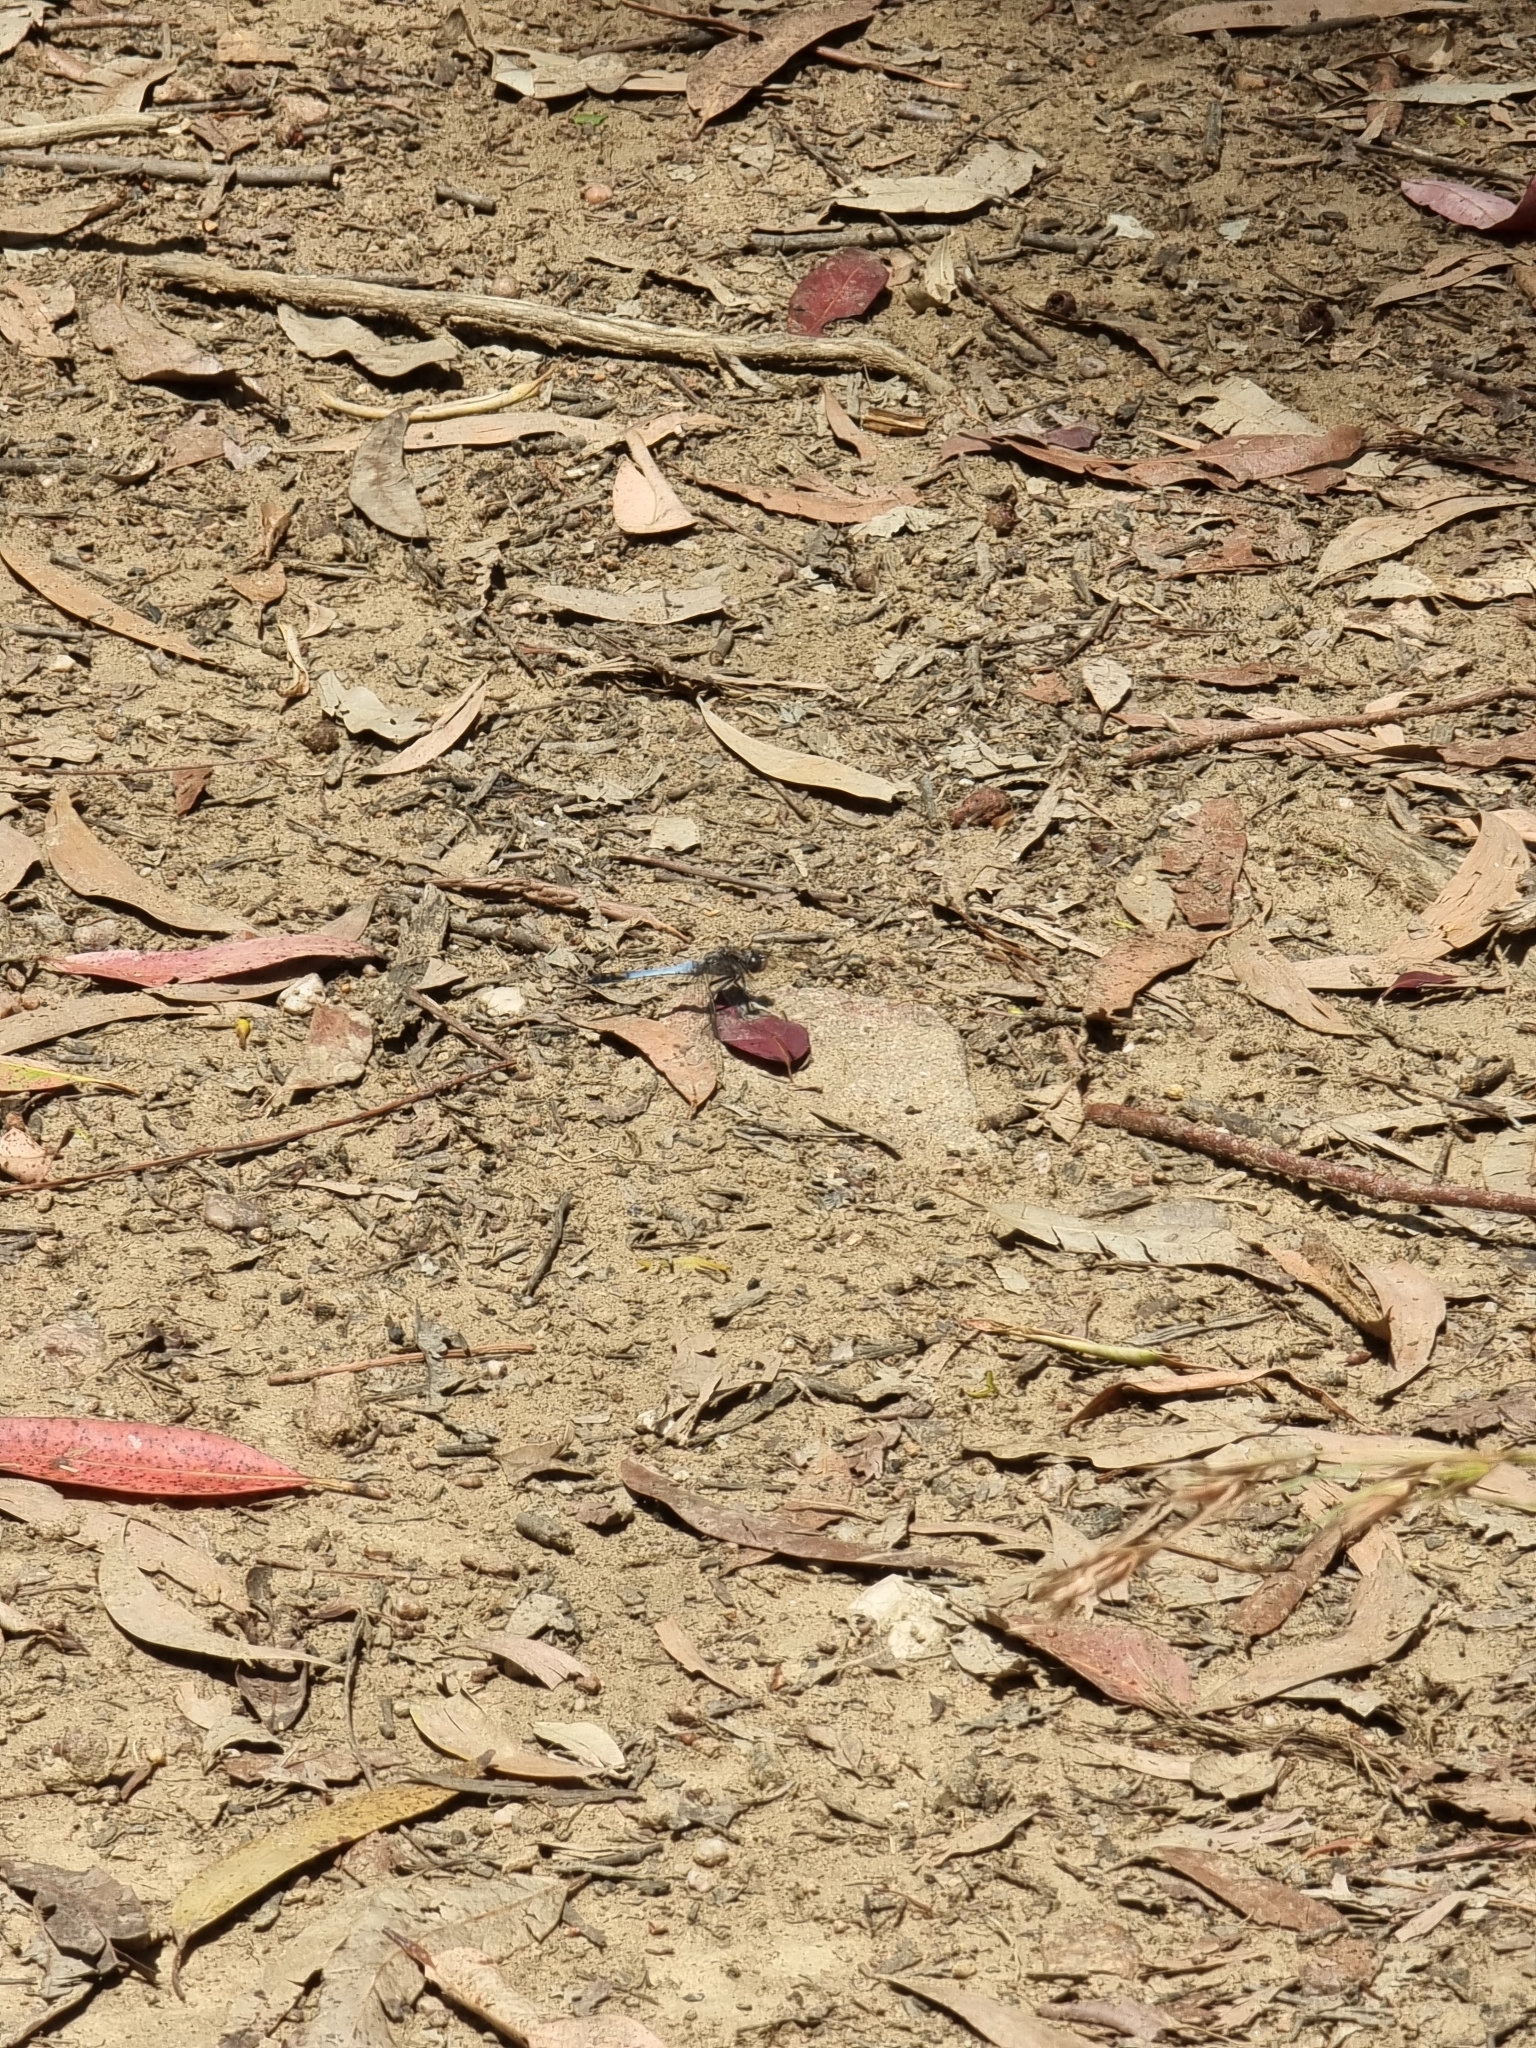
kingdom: Animalia
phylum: Arthropoda
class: Insecta
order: Odonata
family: Libellulidae
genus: Orthetrum
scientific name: Orthetrum caledonicum
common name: Blue skimmer
